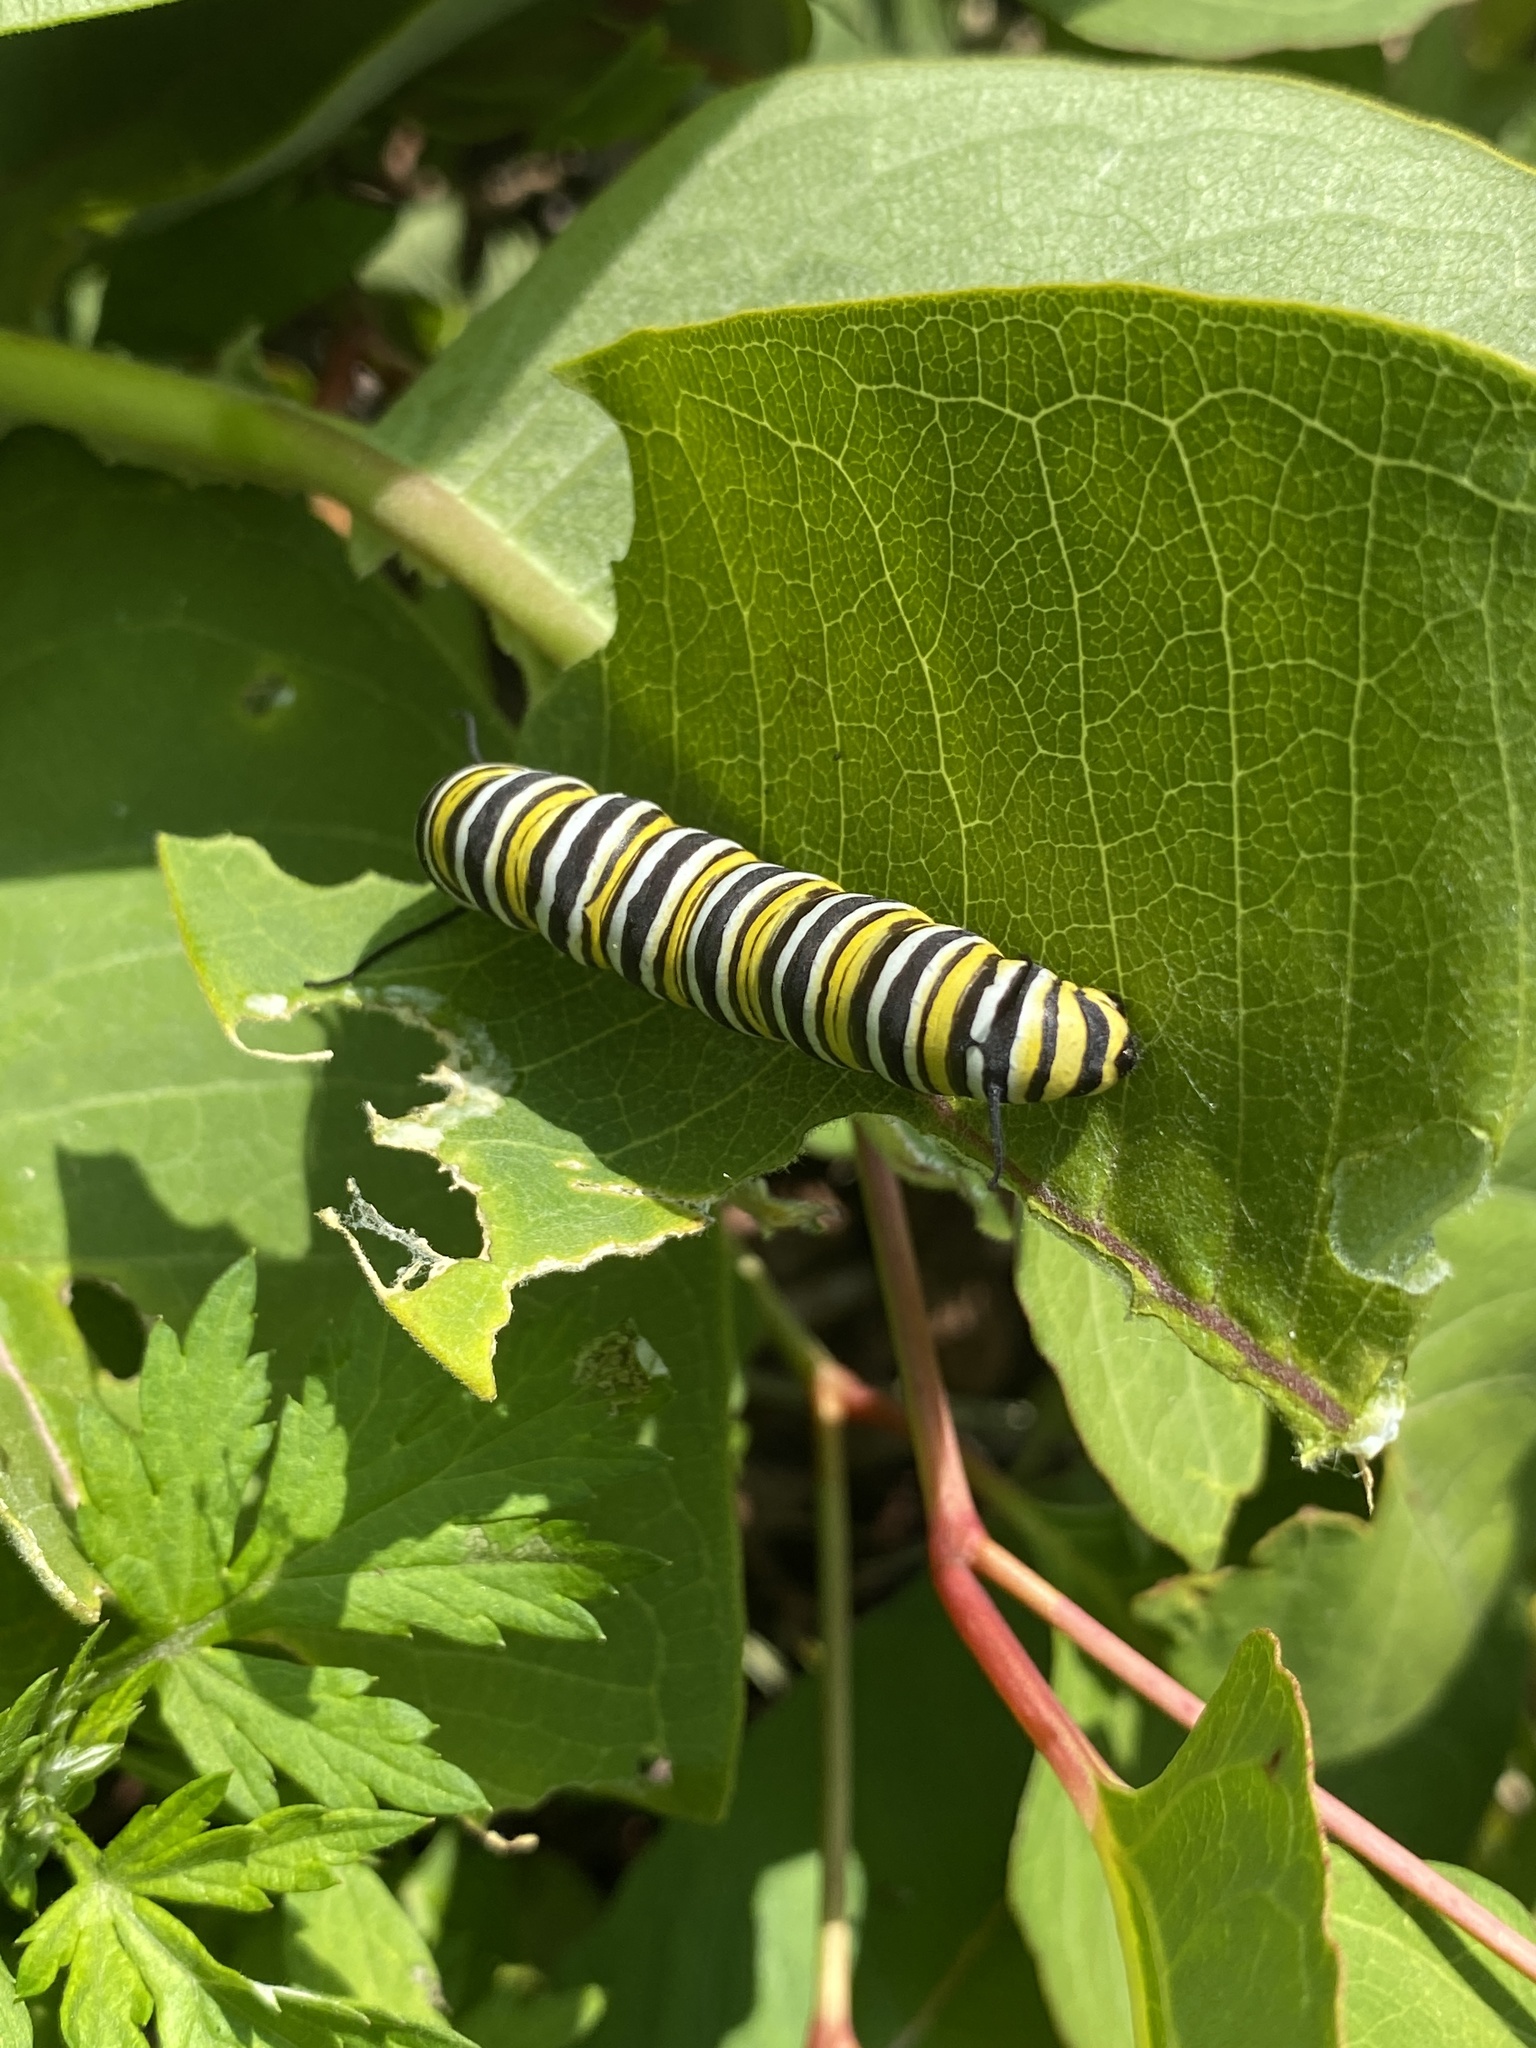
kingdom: Animalia
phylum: Arthropoda
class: Insecta
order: Lepidoptera
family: Nymphalidae
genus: Danaus
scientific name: Danaus plexippus
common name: Monarch
